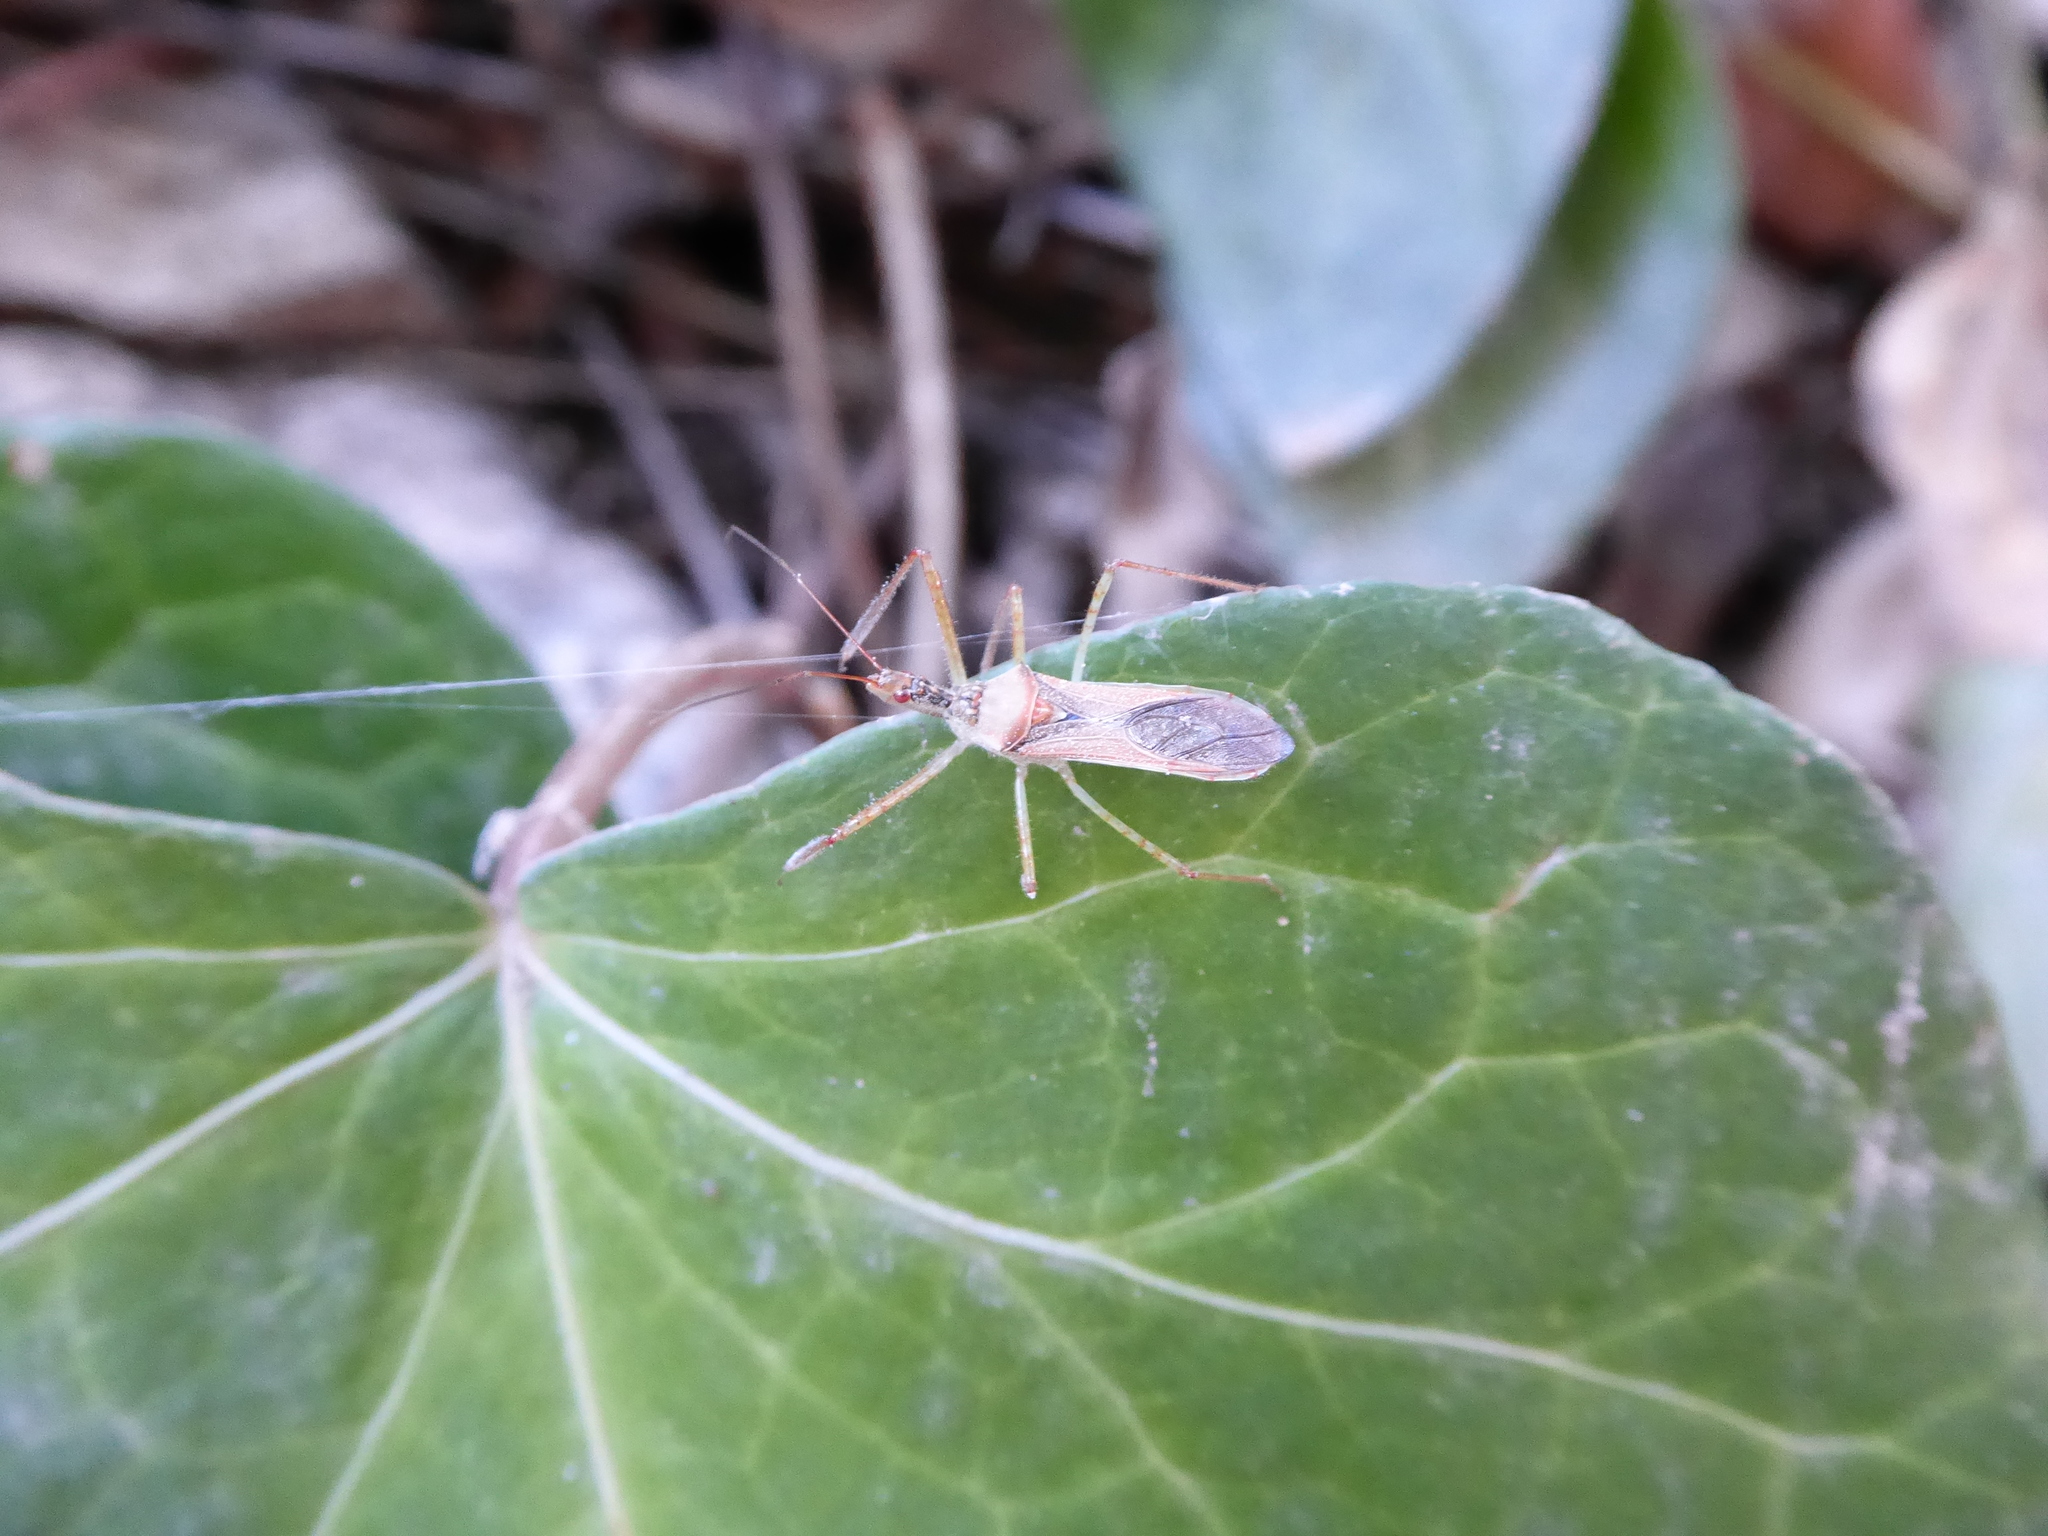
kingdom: Animalia
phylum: Arthropoda
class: Insecta
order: Hemiptera
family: Reduviidae
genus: Zelus
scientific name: Zelus renardii
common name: Assassin bug
